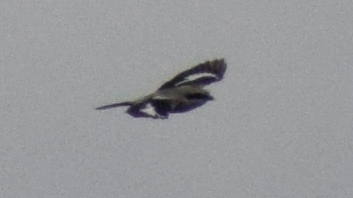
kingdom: Animalia
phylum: Chordata
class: Aves
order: Passeriformes
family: Laniidae
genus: Lanius
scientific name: Lanius excubitor
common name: Great grey shrike
